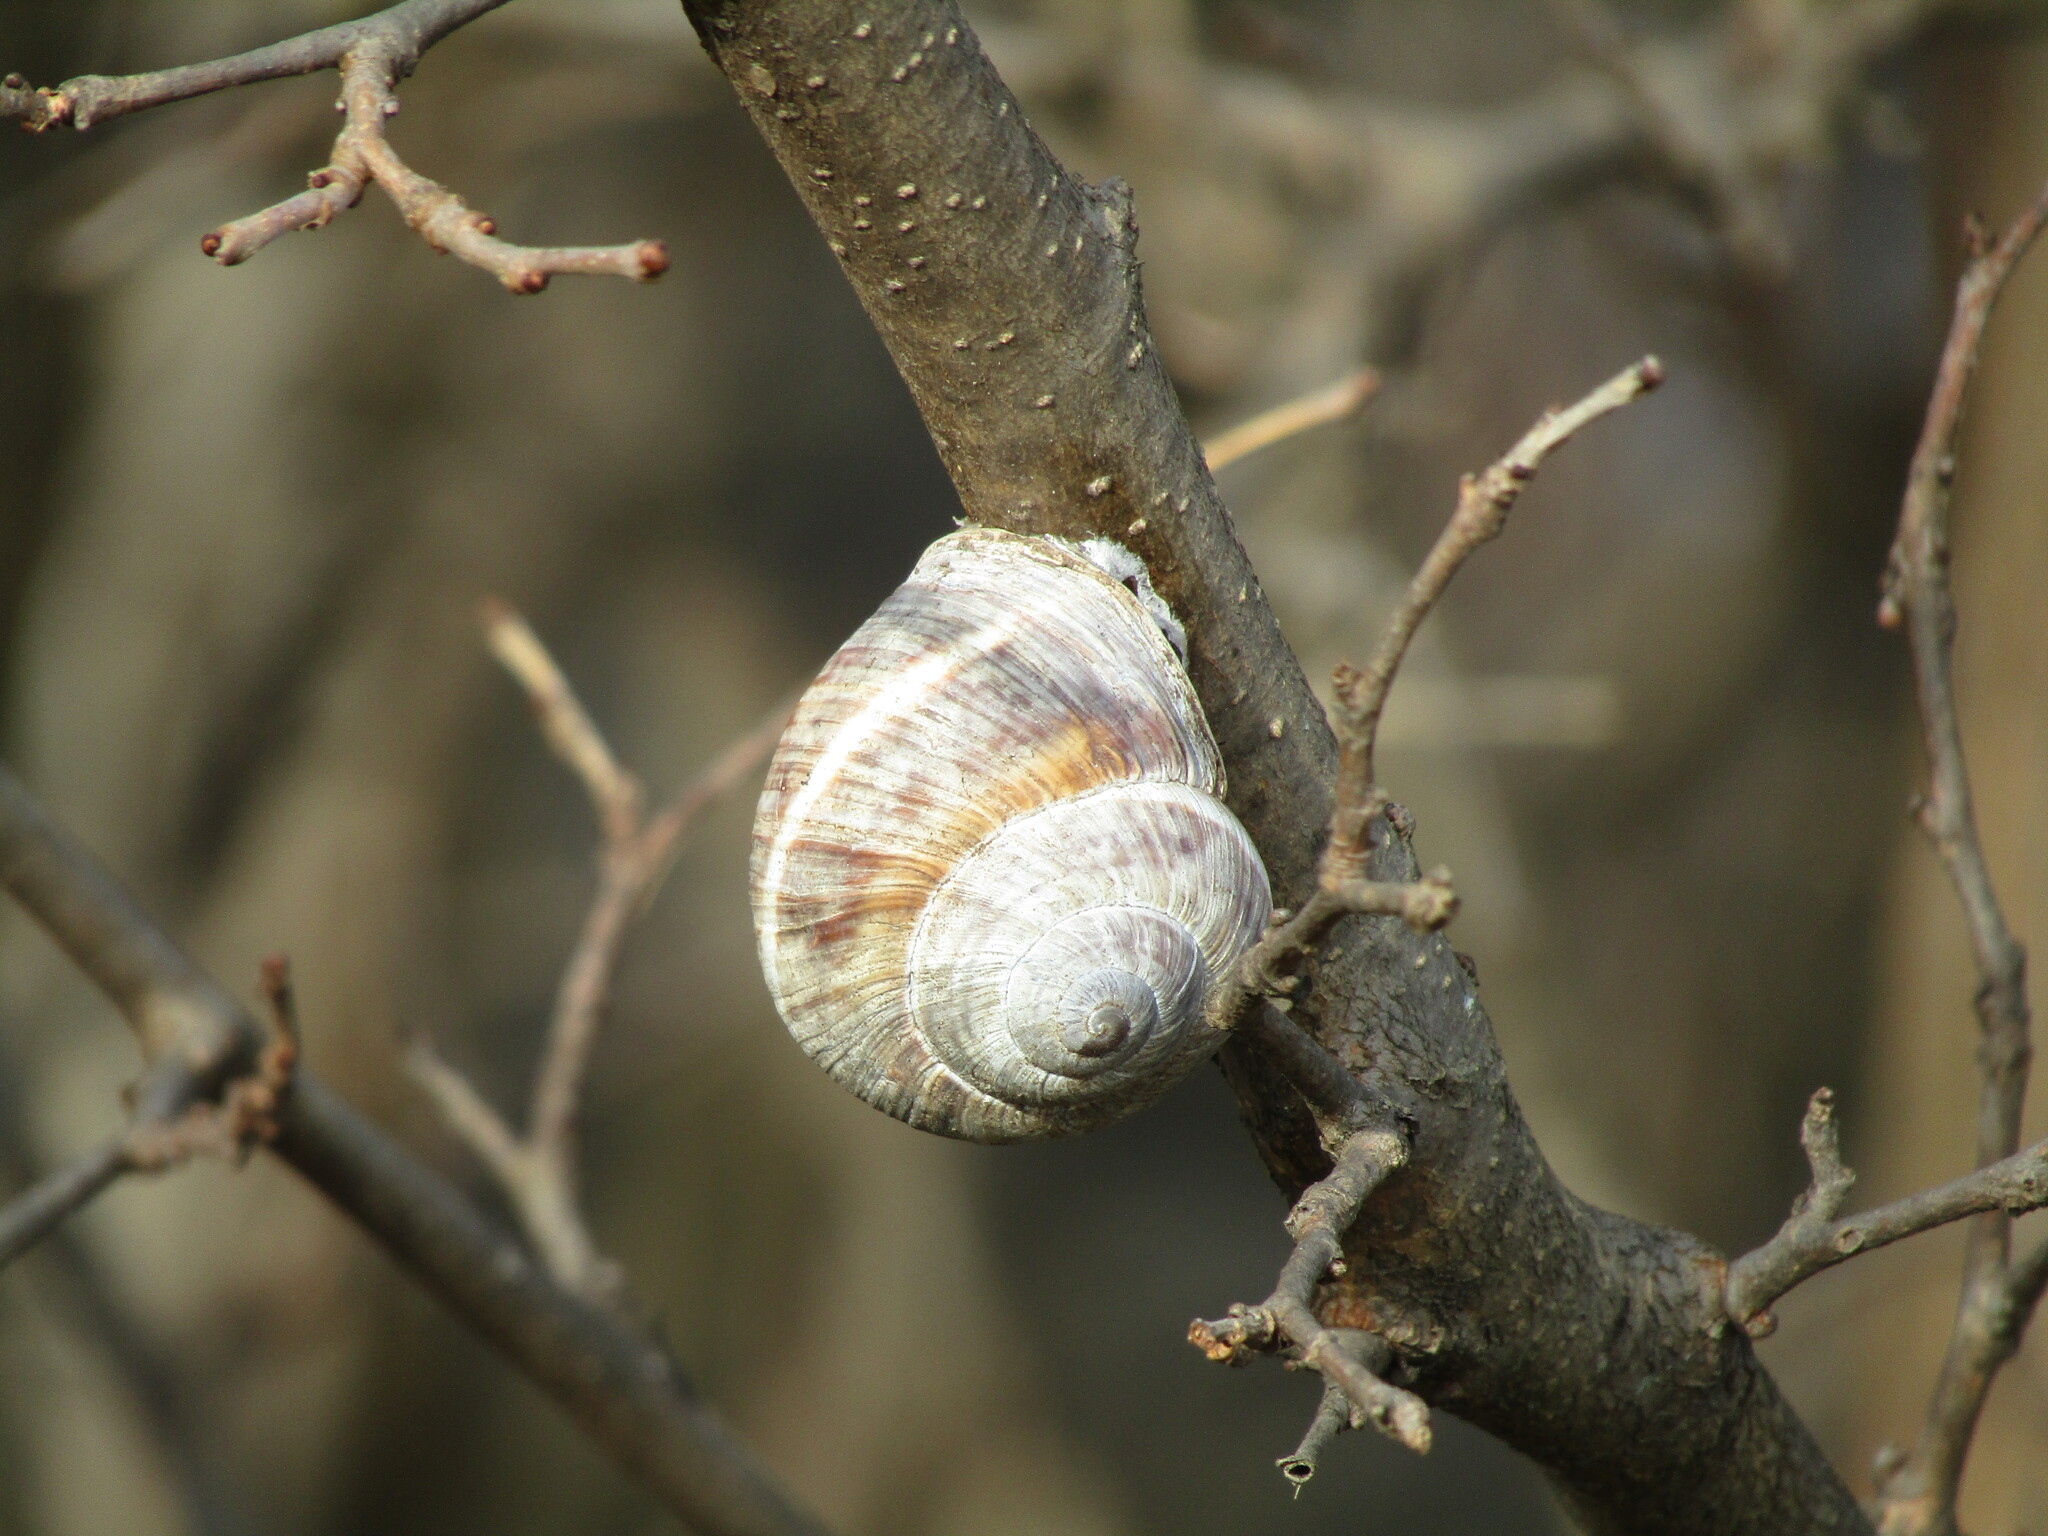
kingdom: Animalia
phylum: Mollusca
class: Gastropoda
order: Stylommatophora
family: Helicidae
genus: Helix
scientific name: Helix lucorum
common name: Turkish snail
